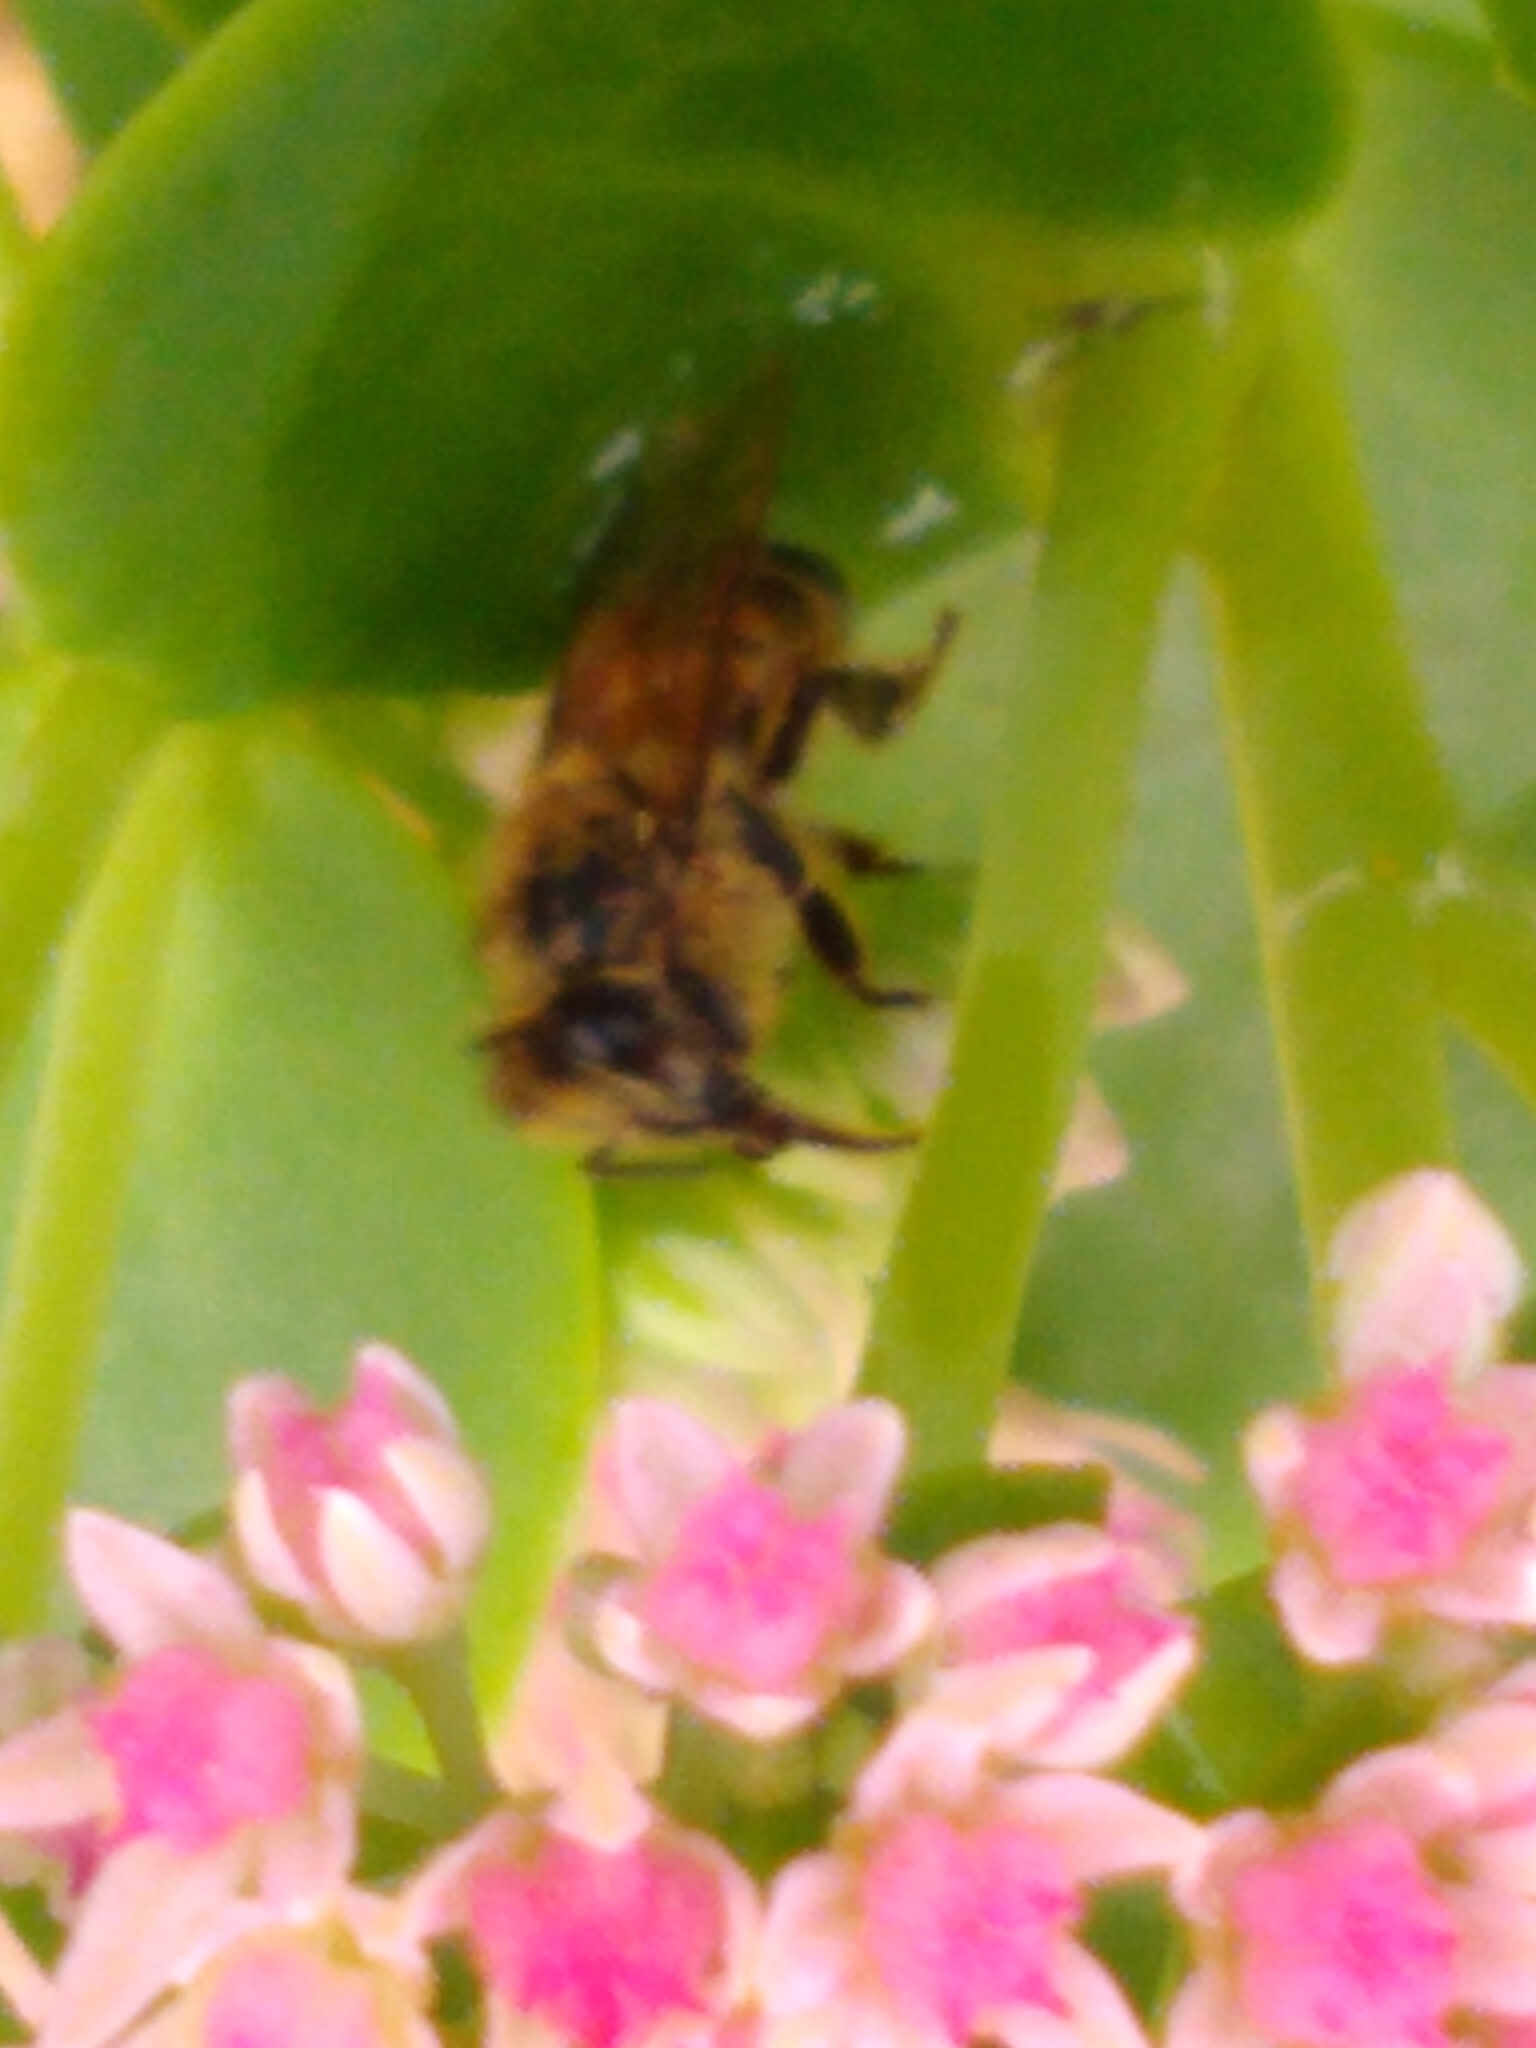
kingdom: Animalia
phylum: Arthropoda
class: Insecta
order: Hymenoptera
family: Apidae
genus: Apis
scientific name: Apis mellifera
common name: Honey bee
